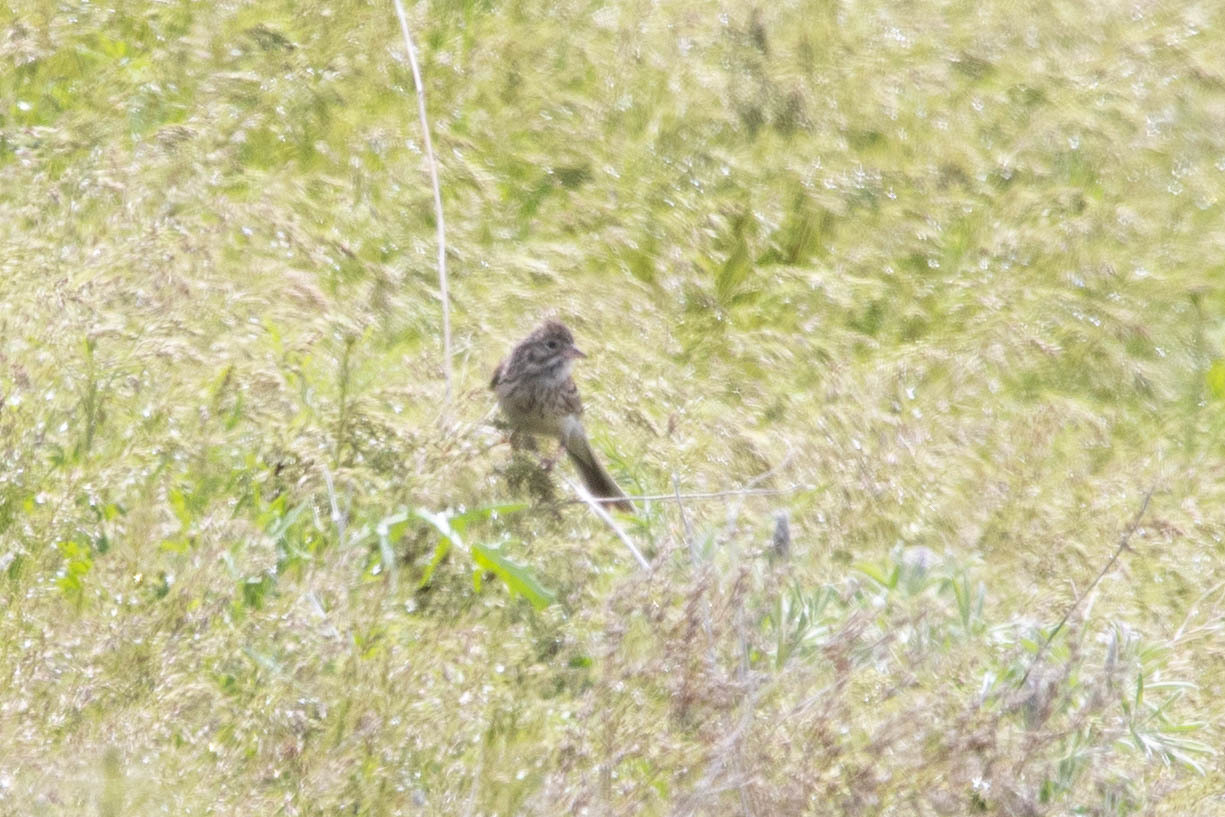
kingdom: Animalia
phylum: Chordata
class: Aves
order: Passeriformes
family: Passerellidae
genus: Pooecetes
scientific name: Pooecetes gramineus
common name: Vesper sparrow
